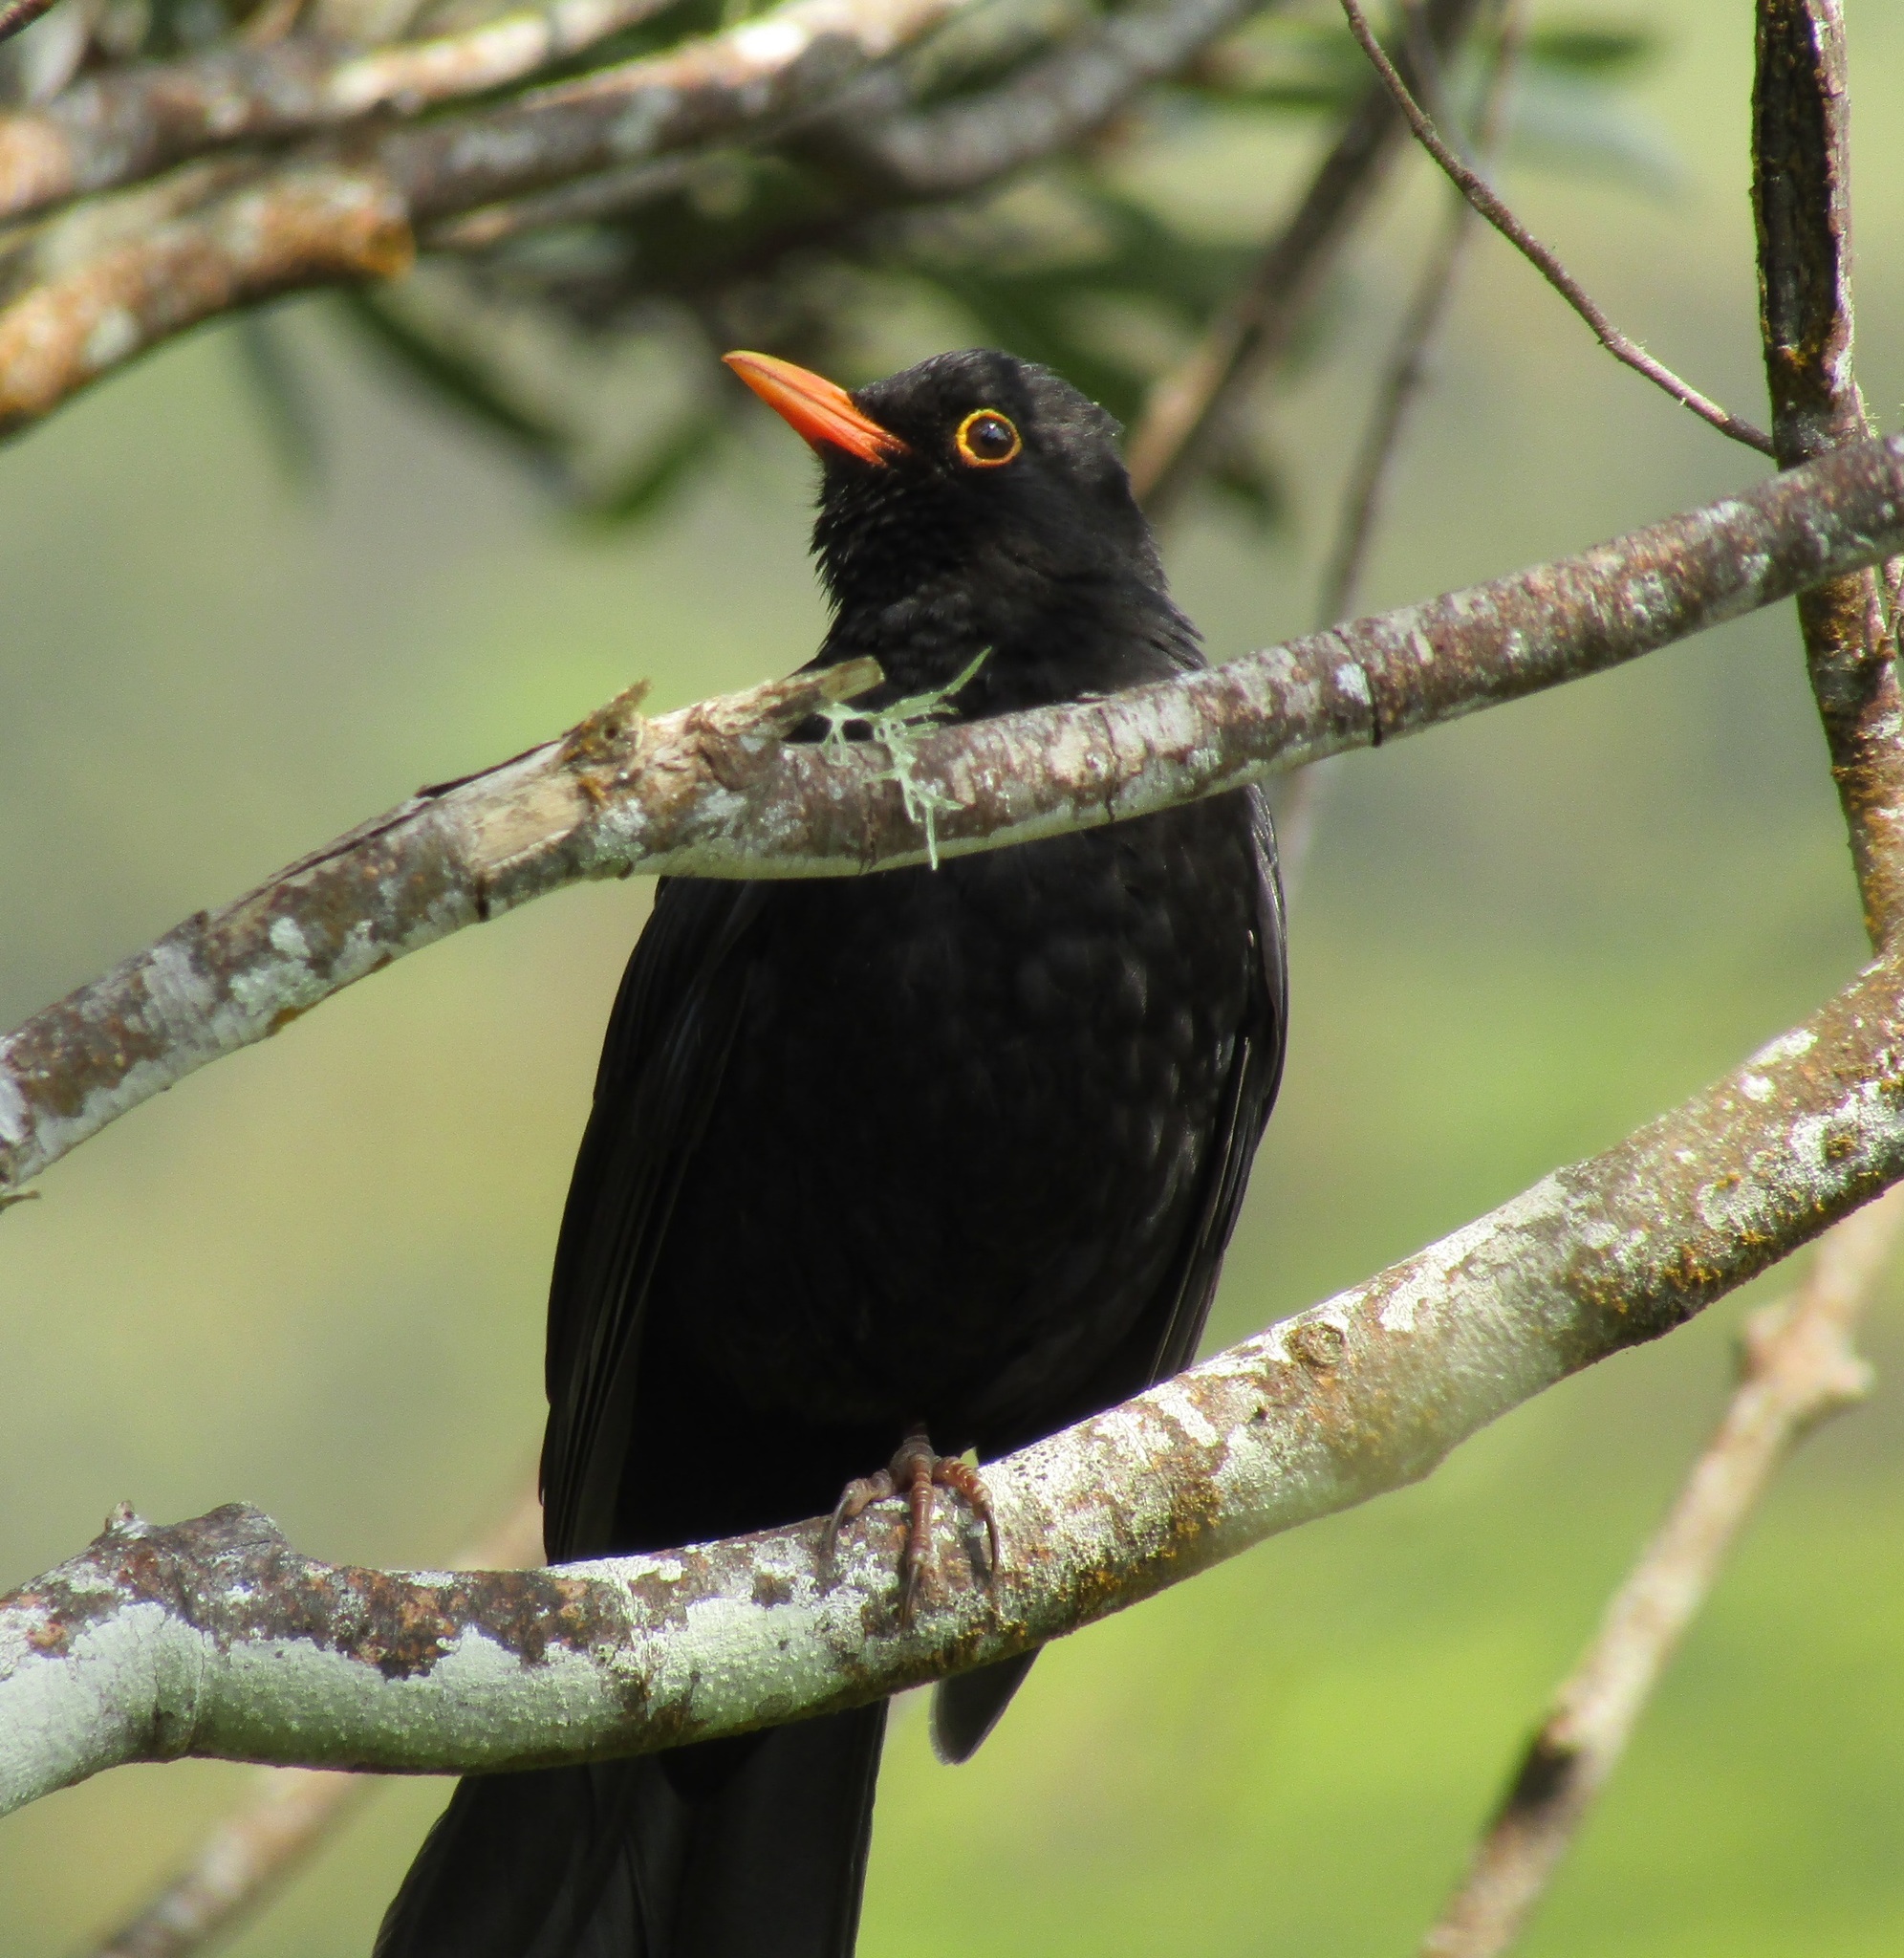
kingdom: Animalia
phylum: Chordata
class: Aves
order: Passeriformes
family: Turdidae
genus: Turdus
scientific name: Turdus merula
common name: Common blackbird
